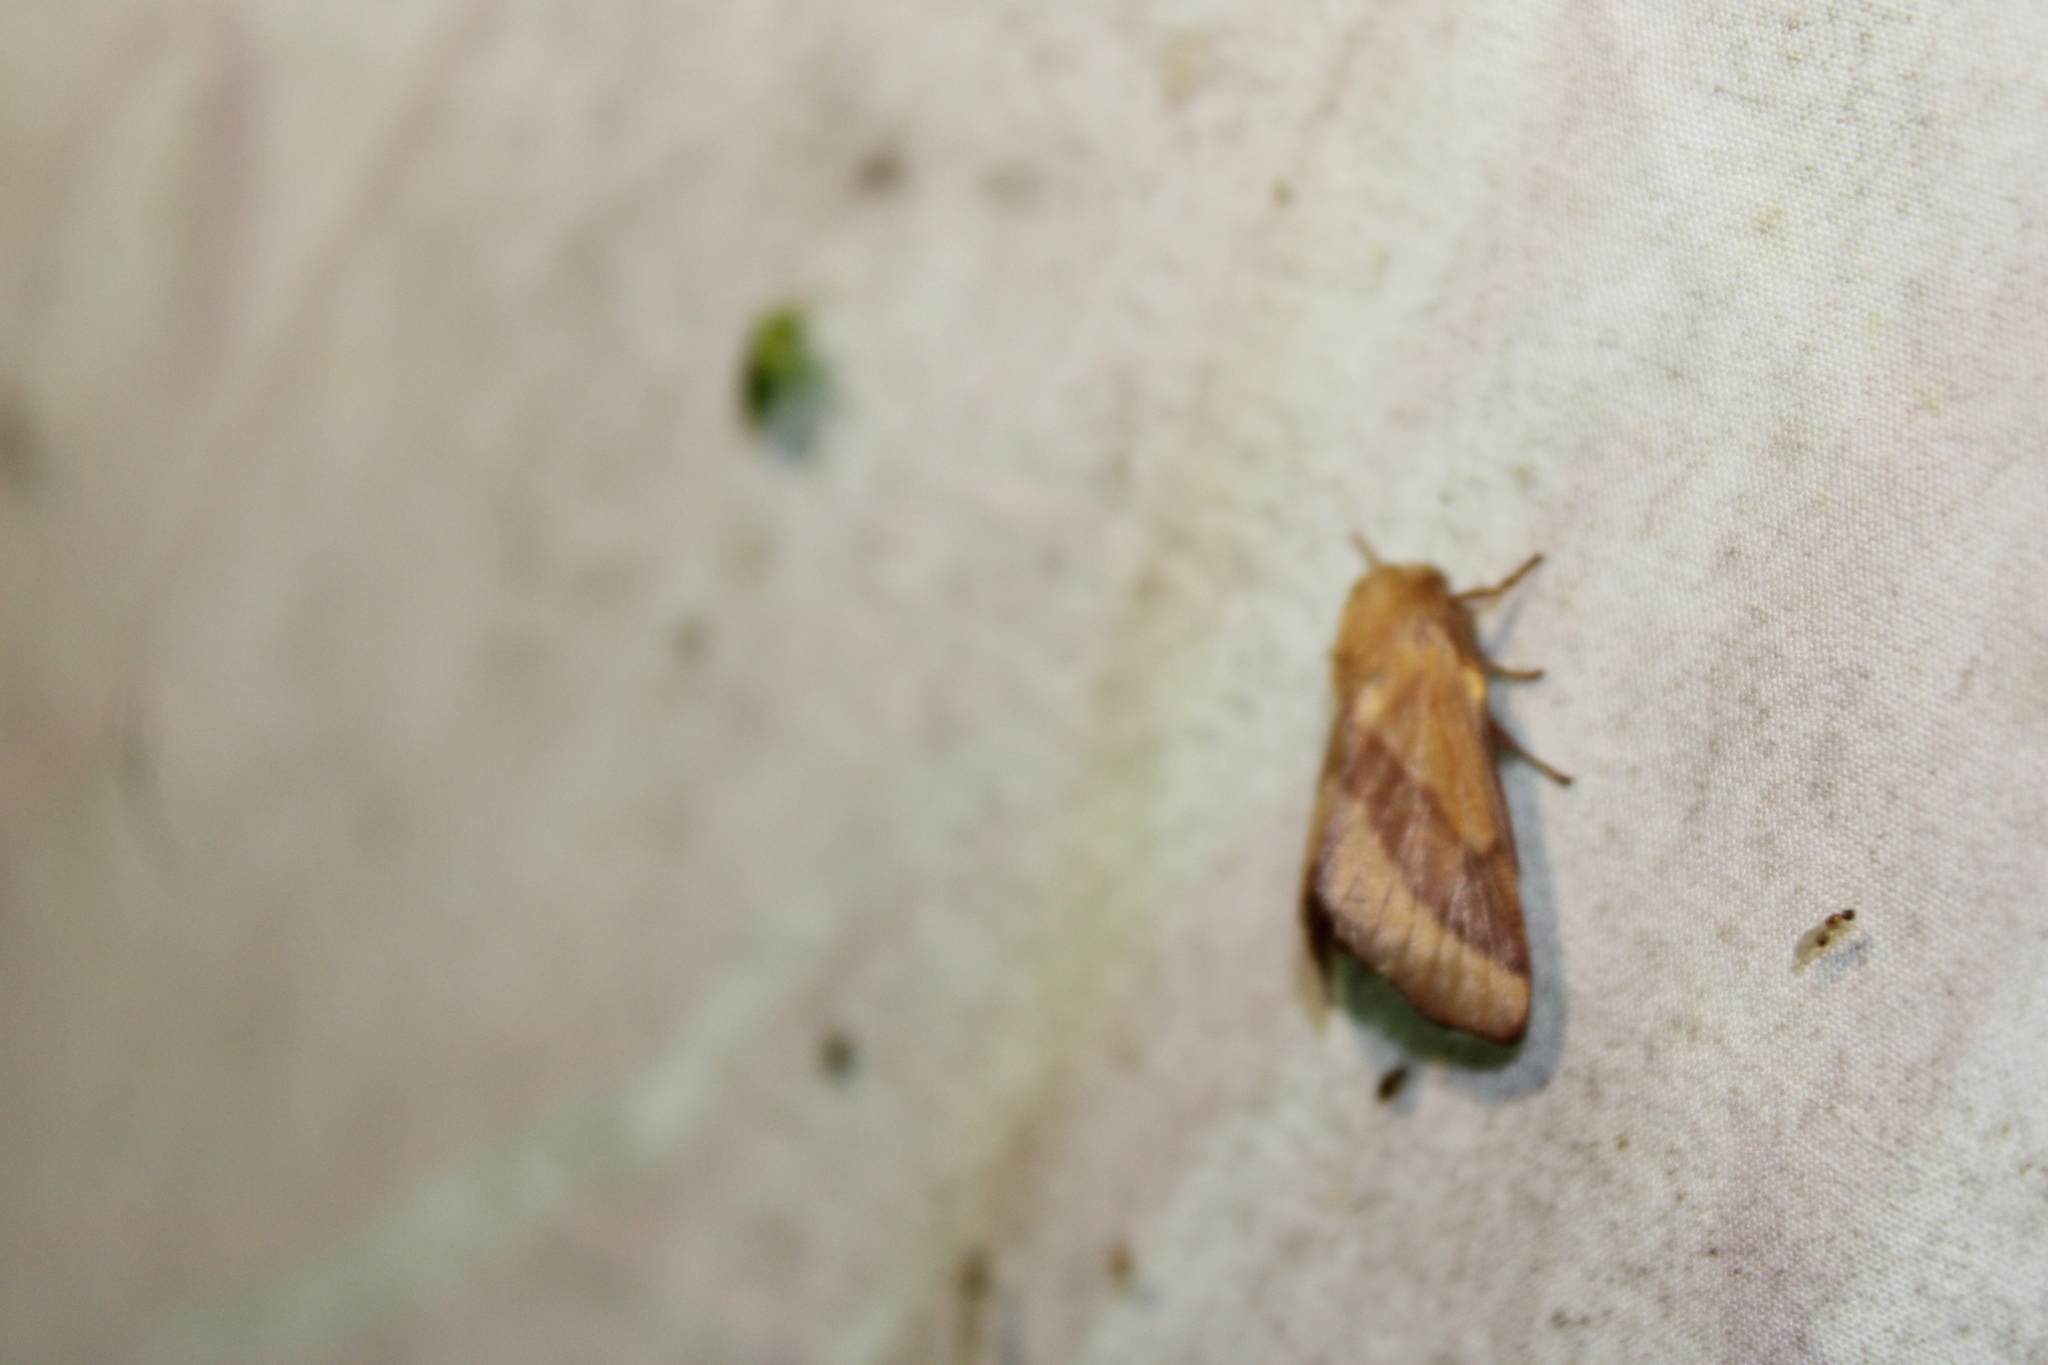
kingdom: Animalia
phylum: Arthropoda
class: Insecta
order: Lepidoptera
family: Lasiocampidae
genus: Malacosoma
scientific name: Malacosoma disstria
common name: Forest tent caterpillar
